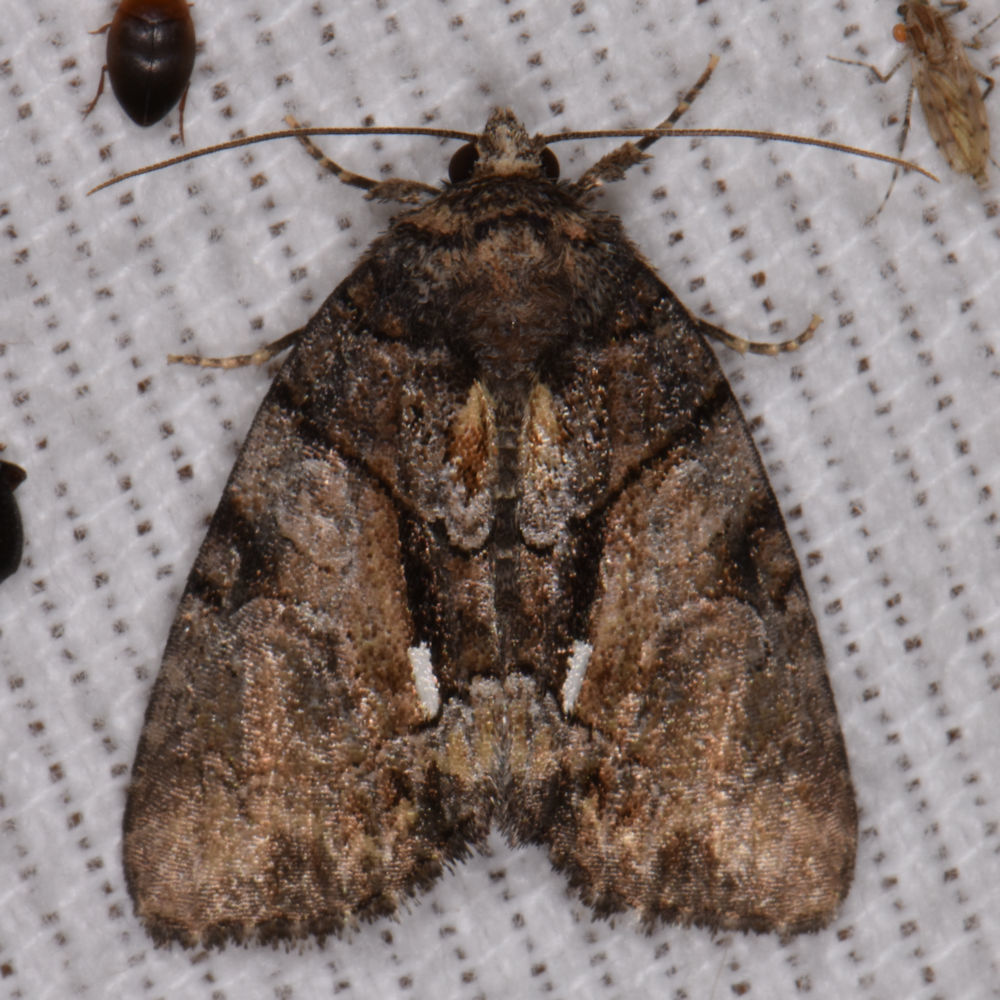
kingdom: Animalia
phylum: Arthropoda
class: Insecta
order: Lepidoptera
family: Noctuidae
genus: Chytonix
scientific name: Chytonix palliatricula
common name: Cloaked marvel
